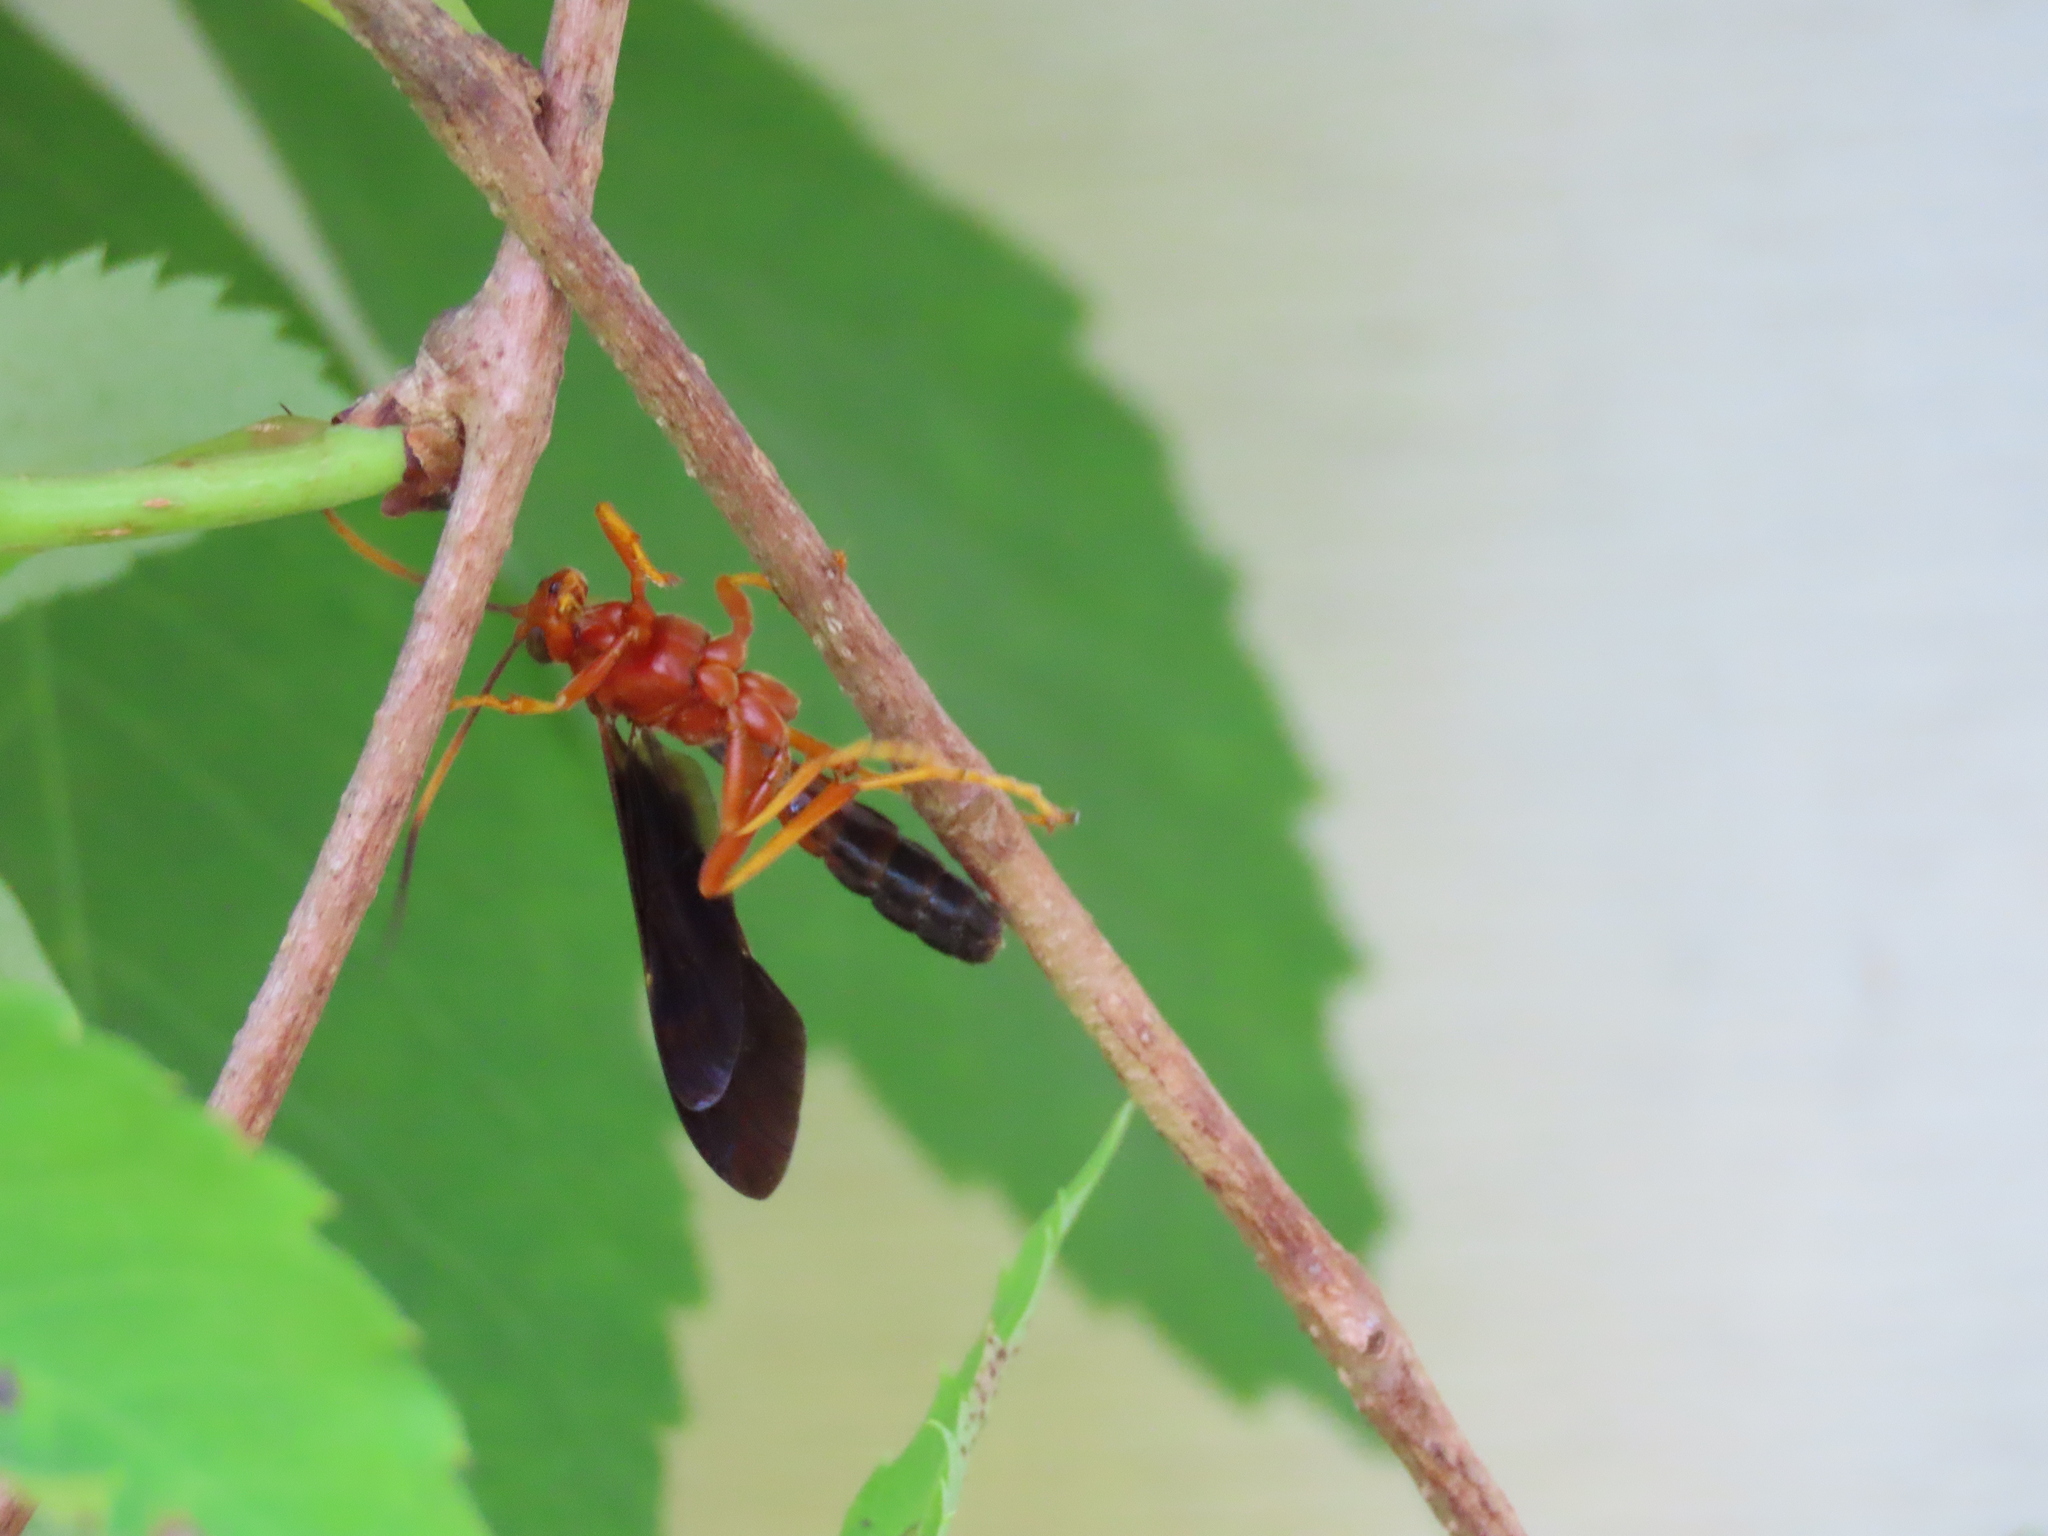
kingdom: Animalia
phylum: Arthropoda
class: Insecta
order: Hymenoptera
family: Ichneumonidae
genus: Tmetogaster
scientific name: Tmetogaster nubilipennis
